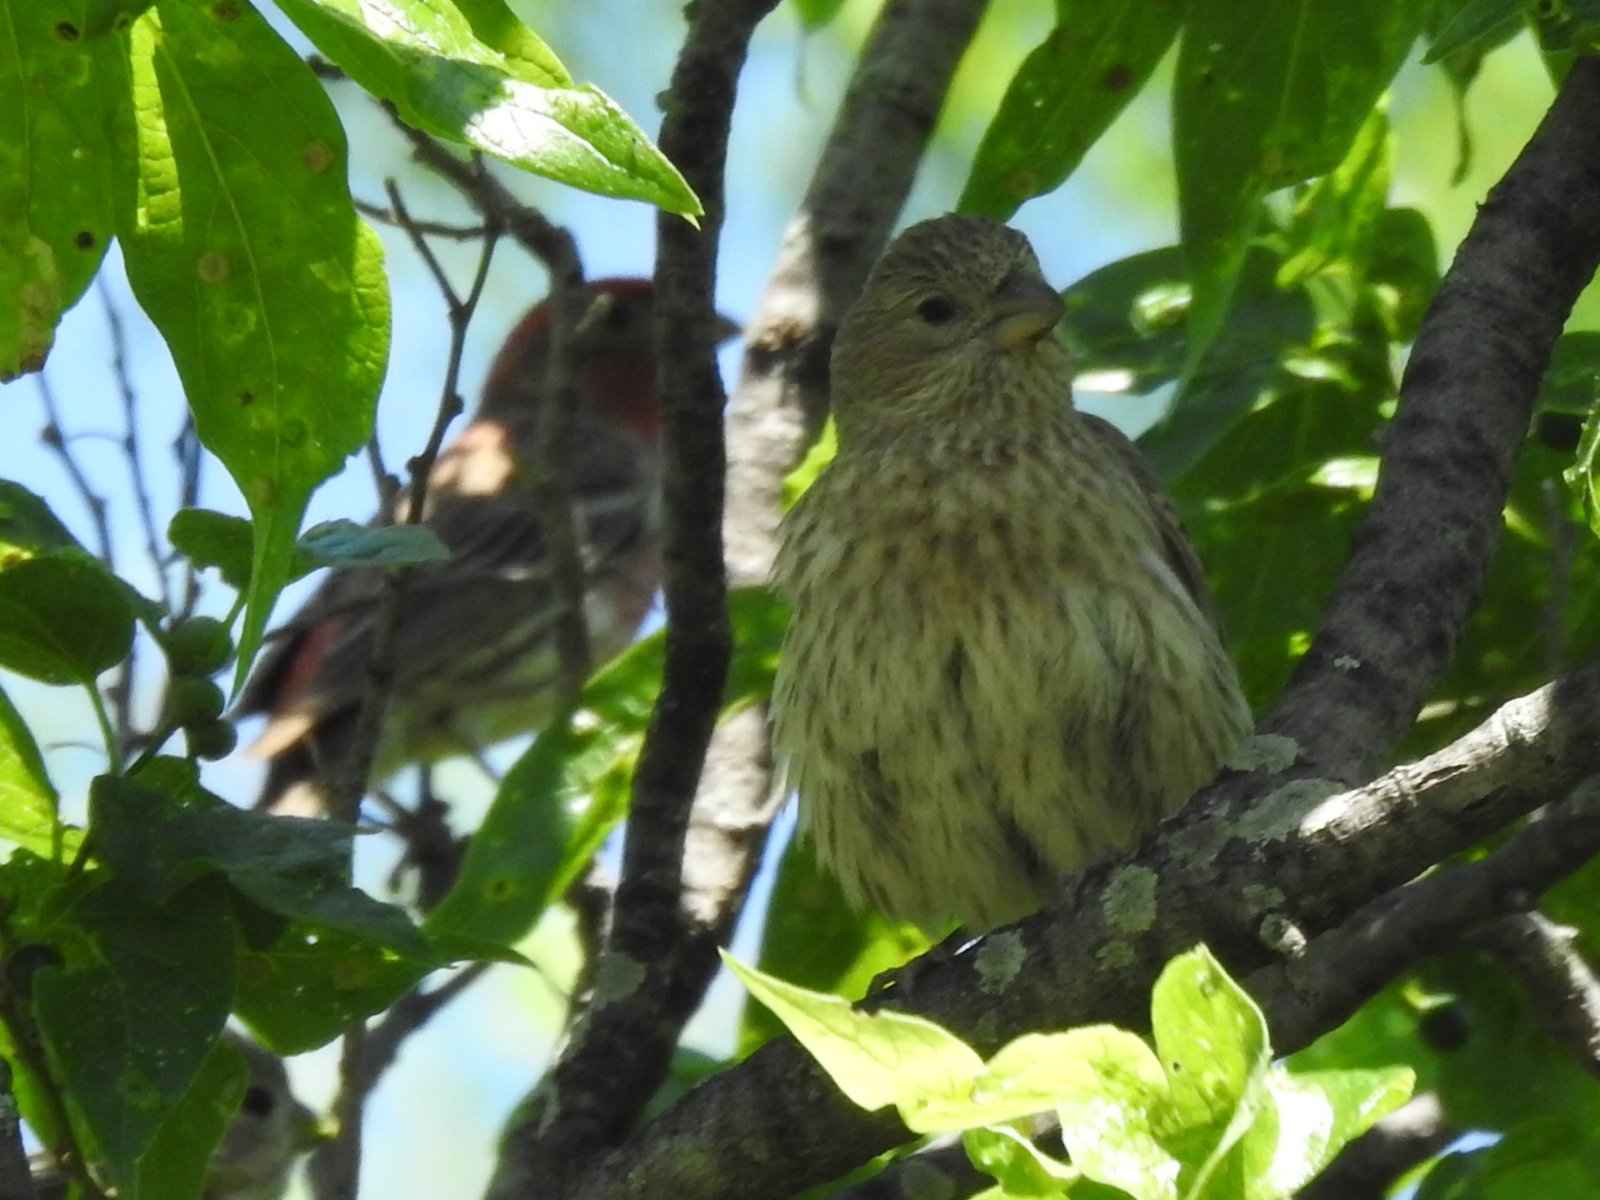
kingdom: Animalia
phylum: Chordata
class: Aves
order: Passeriformes
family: Fringillidae
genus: Haemorhous
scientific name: Haemorhous mexicanus
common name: House finch
